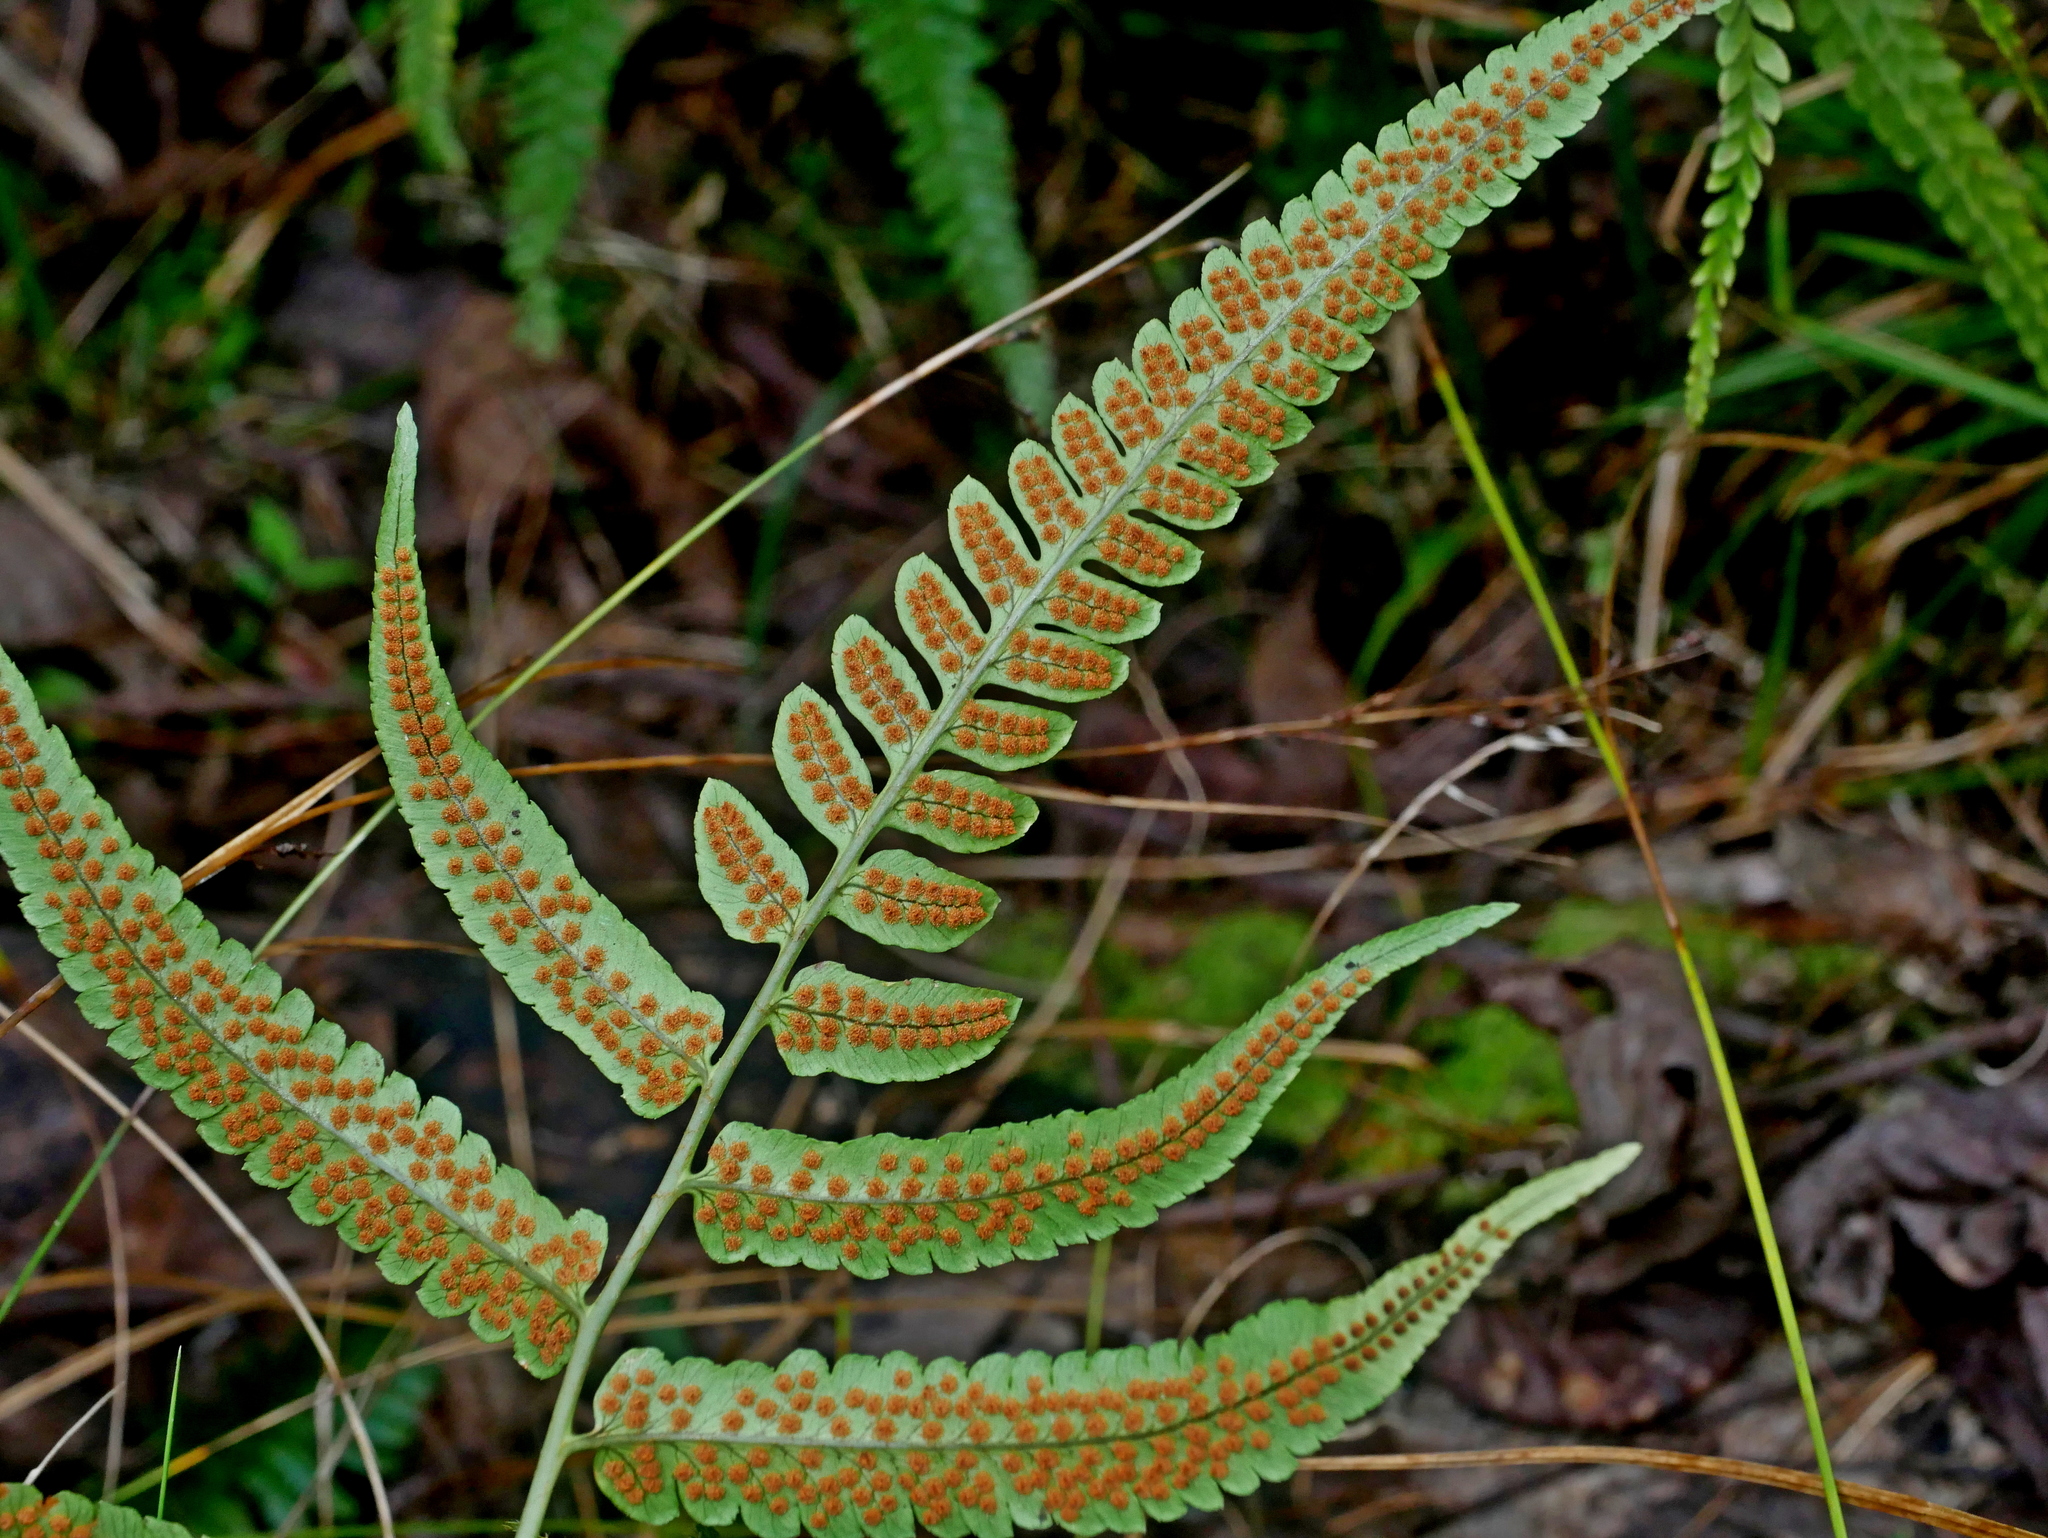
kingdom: Plantae
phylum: Tracheophyta
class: Polypodiopsida
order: Polypodiales
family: Dryopteridaceae
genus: Dryopteris
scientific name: Dryopteris toyamae
